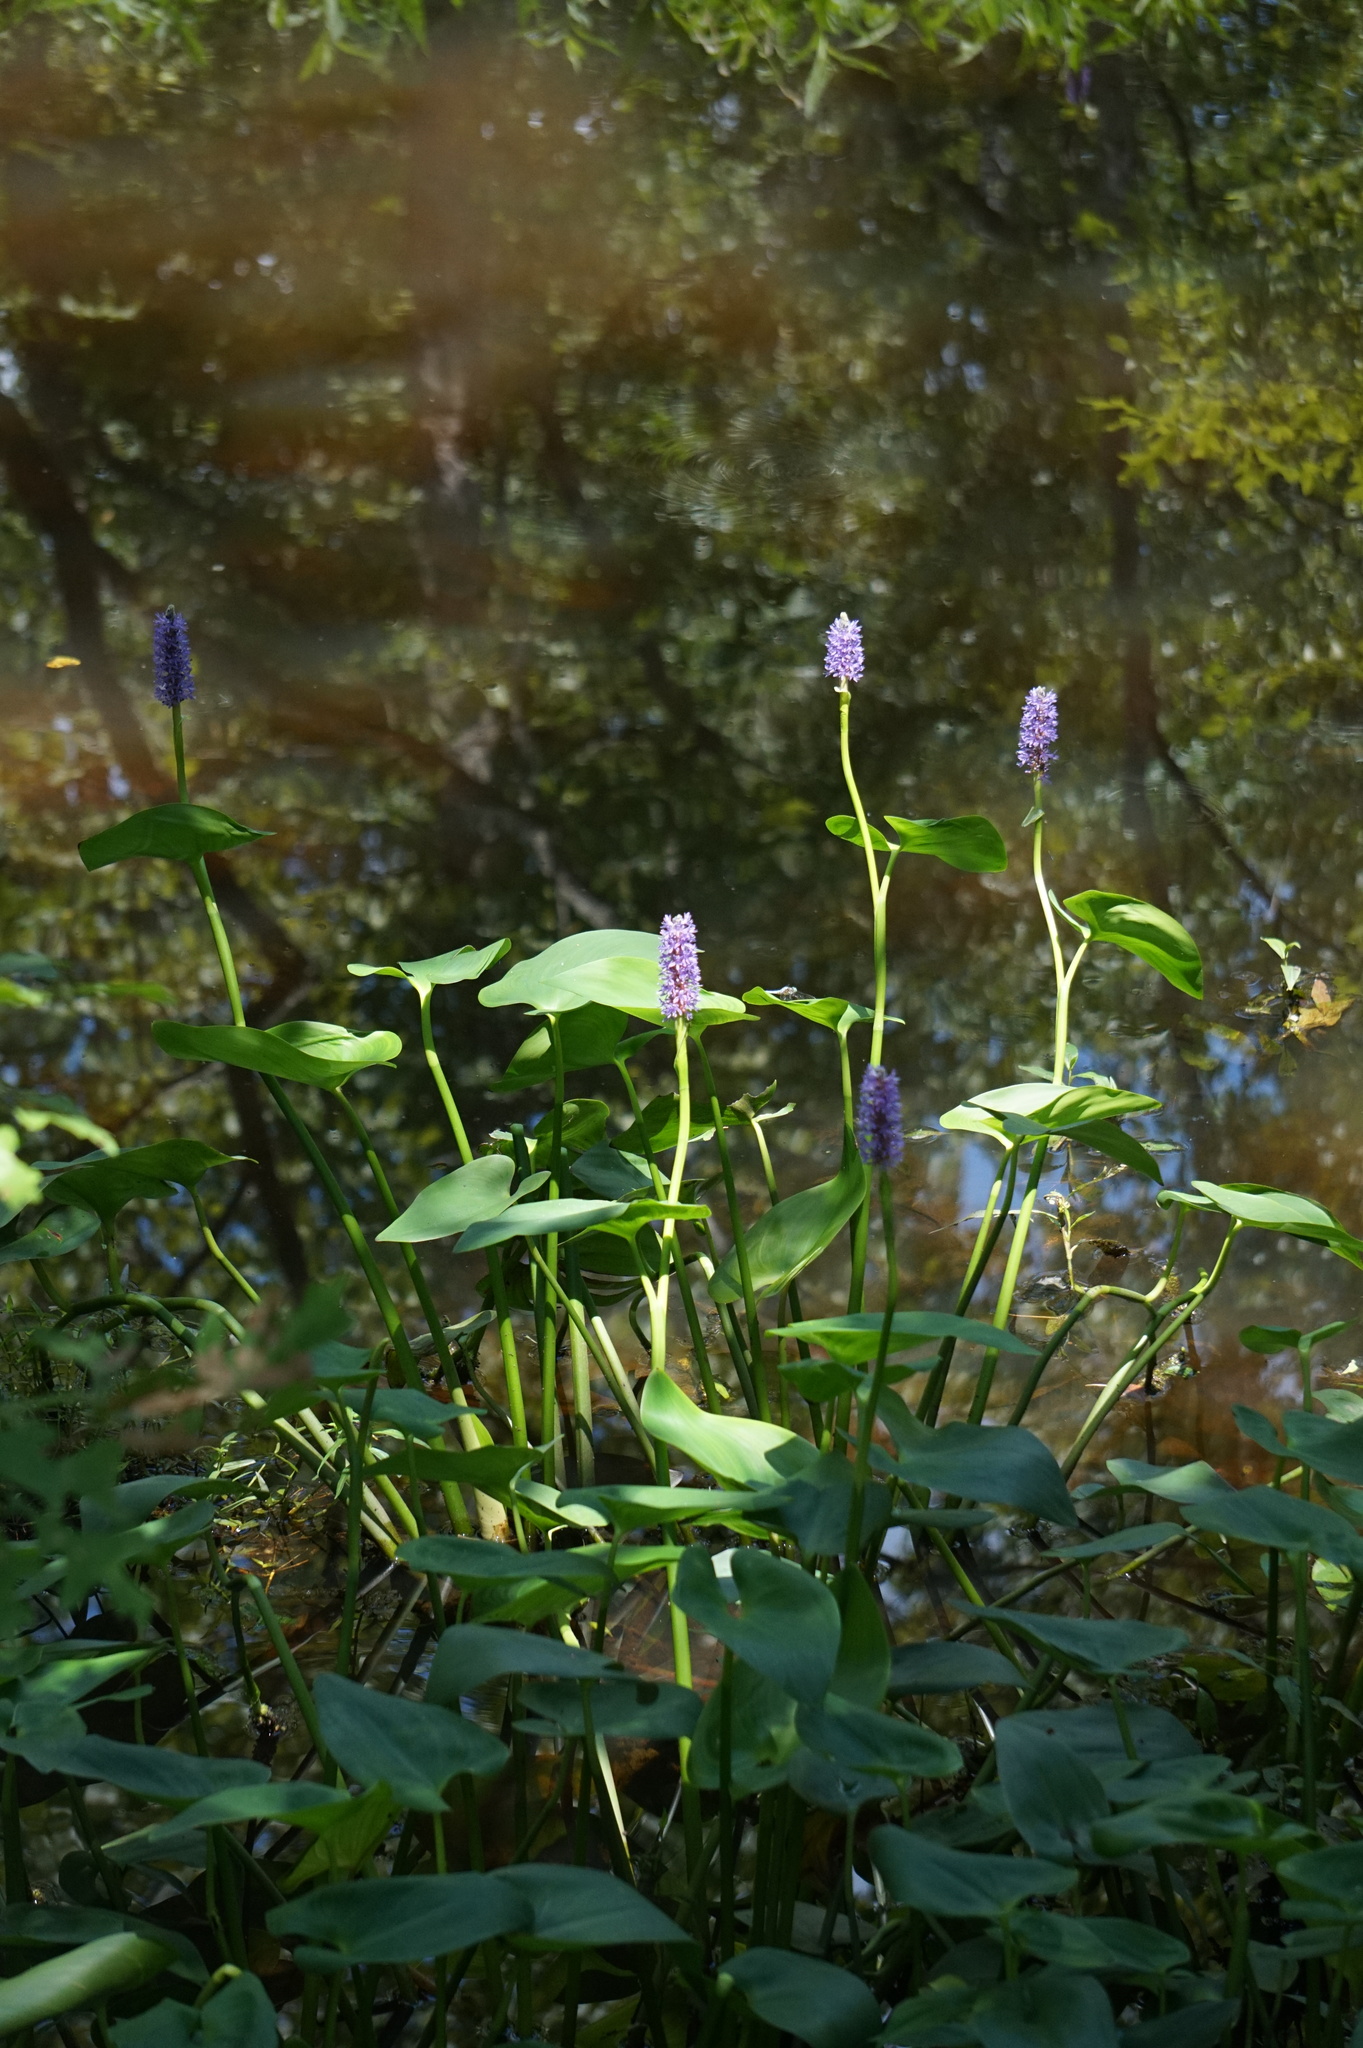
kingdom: Plantae
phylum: Tracheophyta
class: Liliopsida
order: Commelinales
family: Pontederiaceae
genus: Pontederia
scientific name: Pontederia cordata
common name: Pickerelweed
